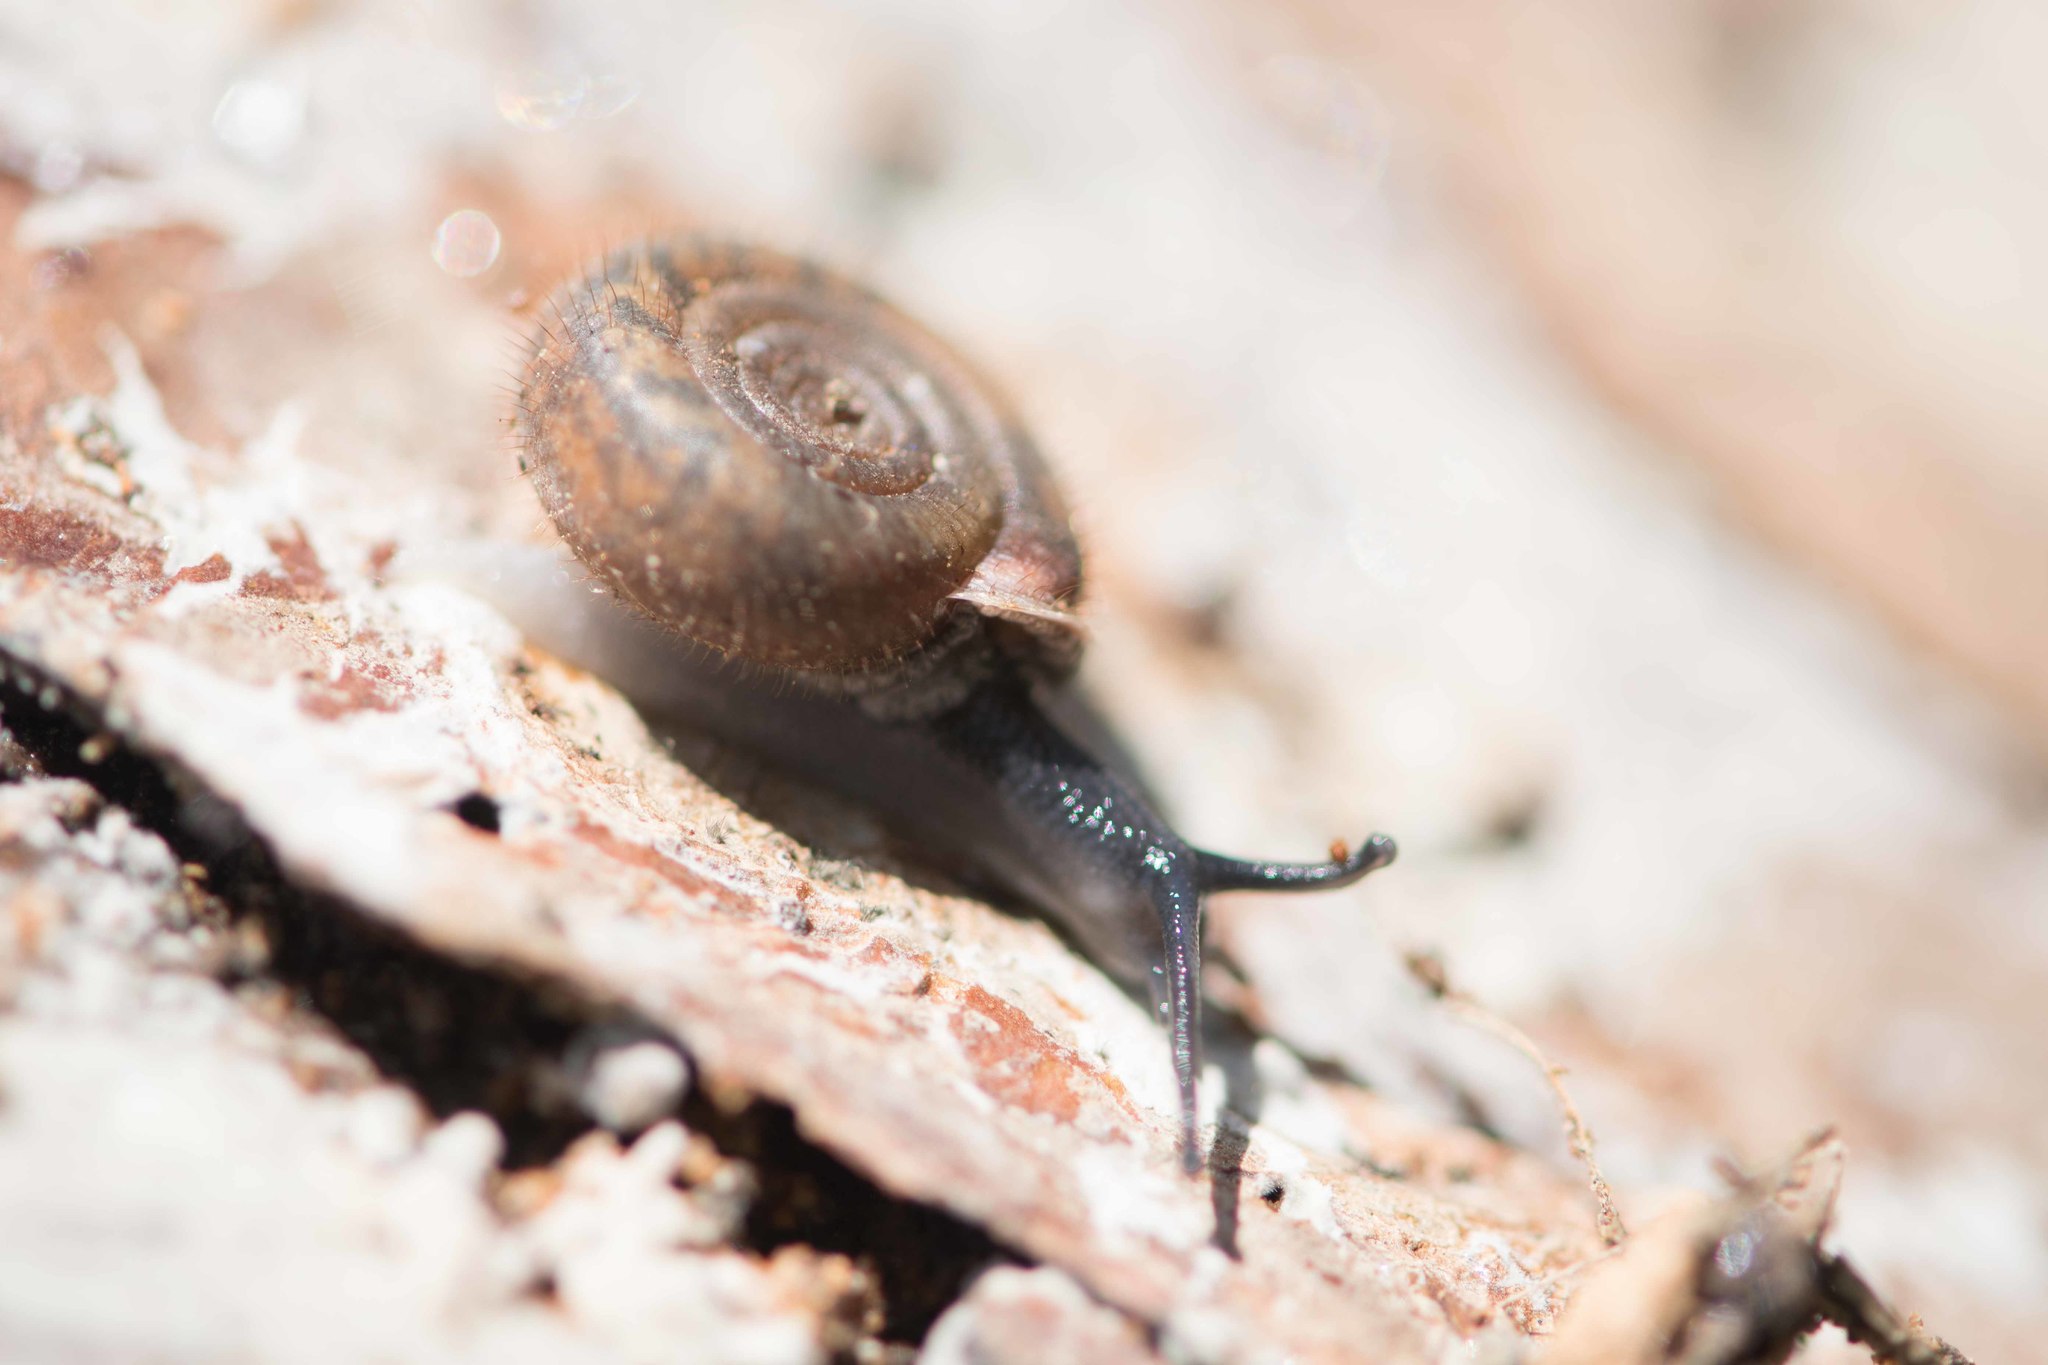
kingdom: Animalia
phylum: Mollusca
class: Gastropoda
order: Stylommatophora
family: Helicodontidae
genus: Helicodonta
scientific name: Helicodonta obvoluta
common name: Cheese snail
